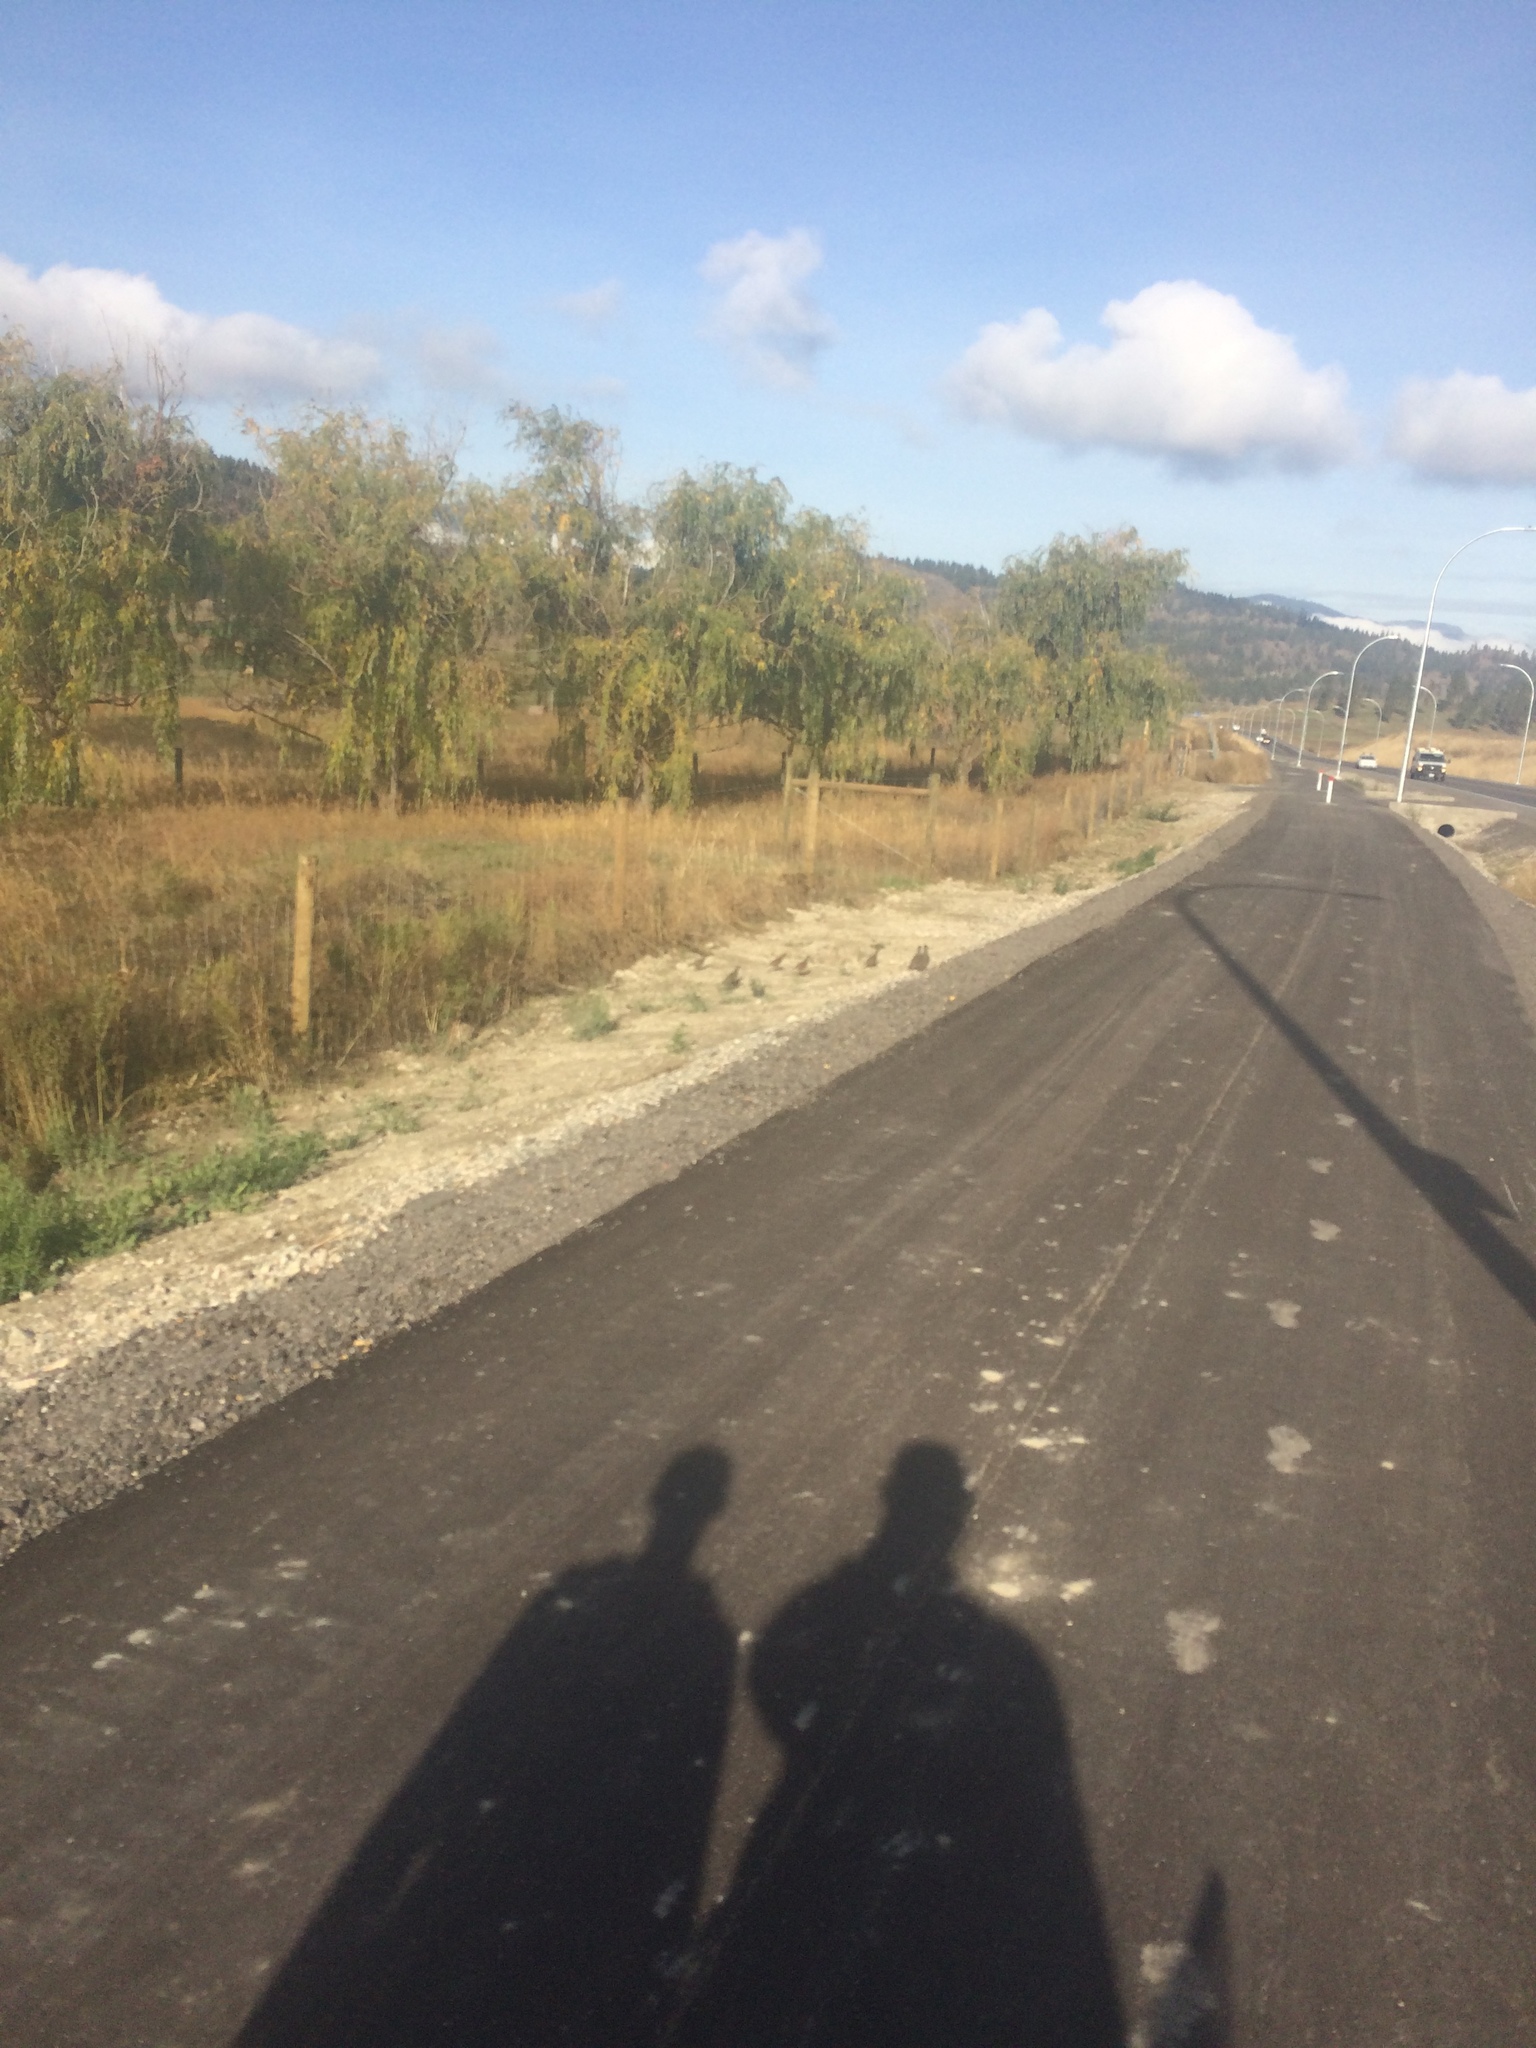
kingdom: Animalia
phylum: Chordata
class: Aves
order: Galliformes
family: Odontophoridae
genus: Callipepla
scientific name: Callipepla californica
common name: California quail
